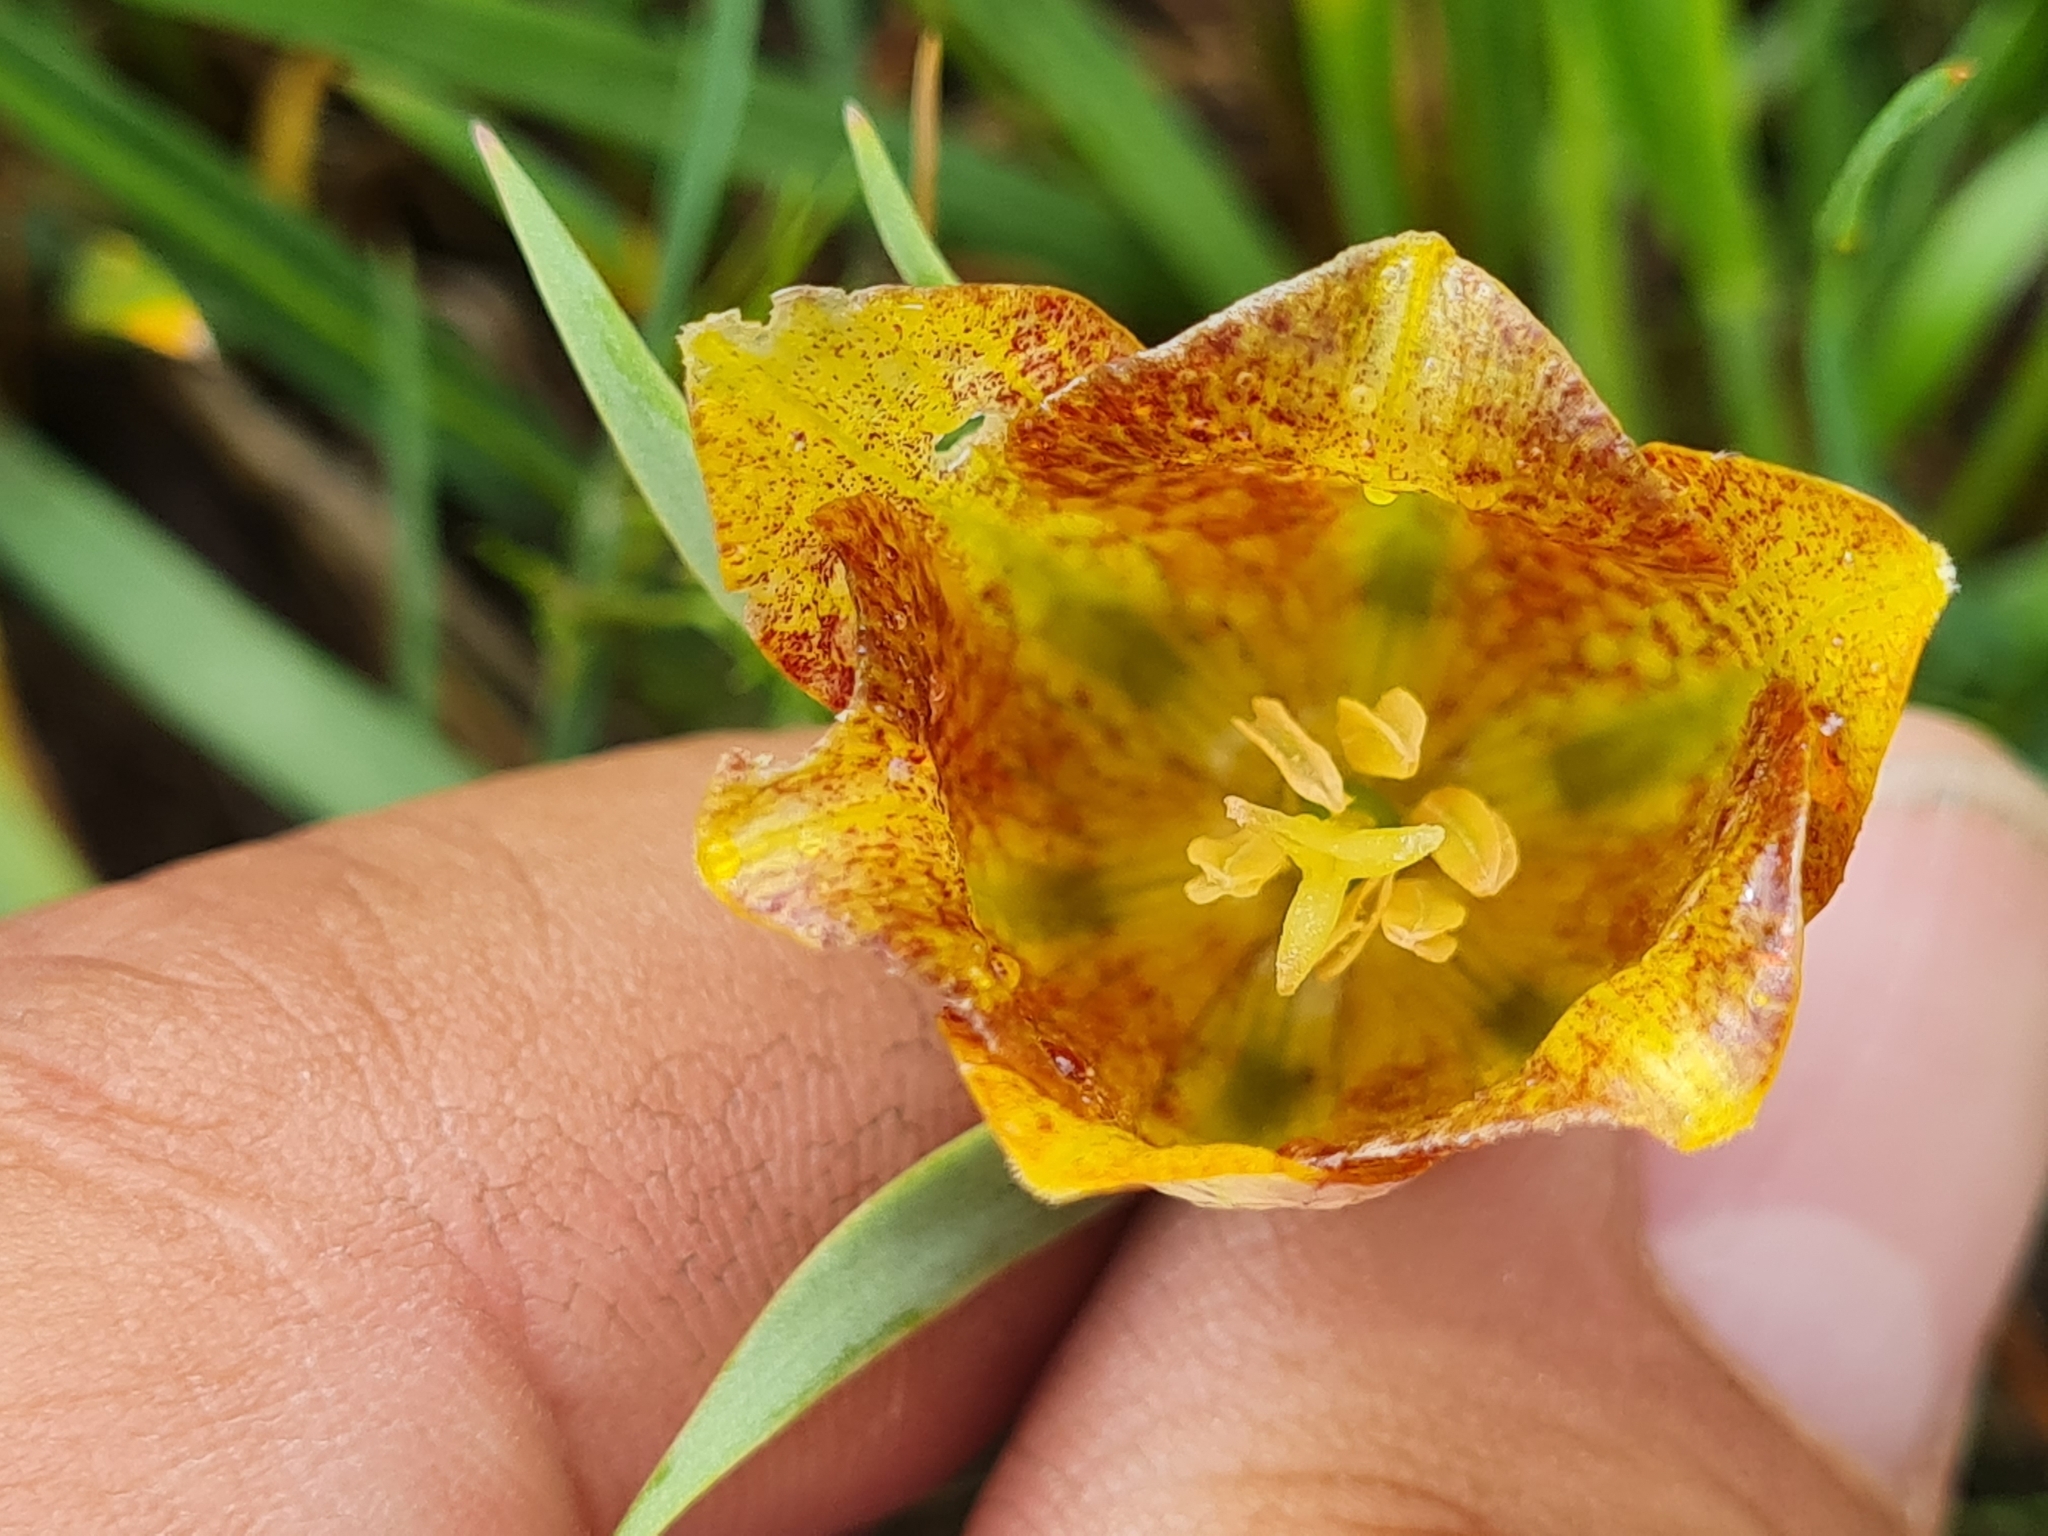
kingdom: Plantae
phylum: Tracheophyta
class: Liliopsida
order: Liliales
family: Liliaceae
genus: Fritillaria
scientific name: Fritillaria kurdica
